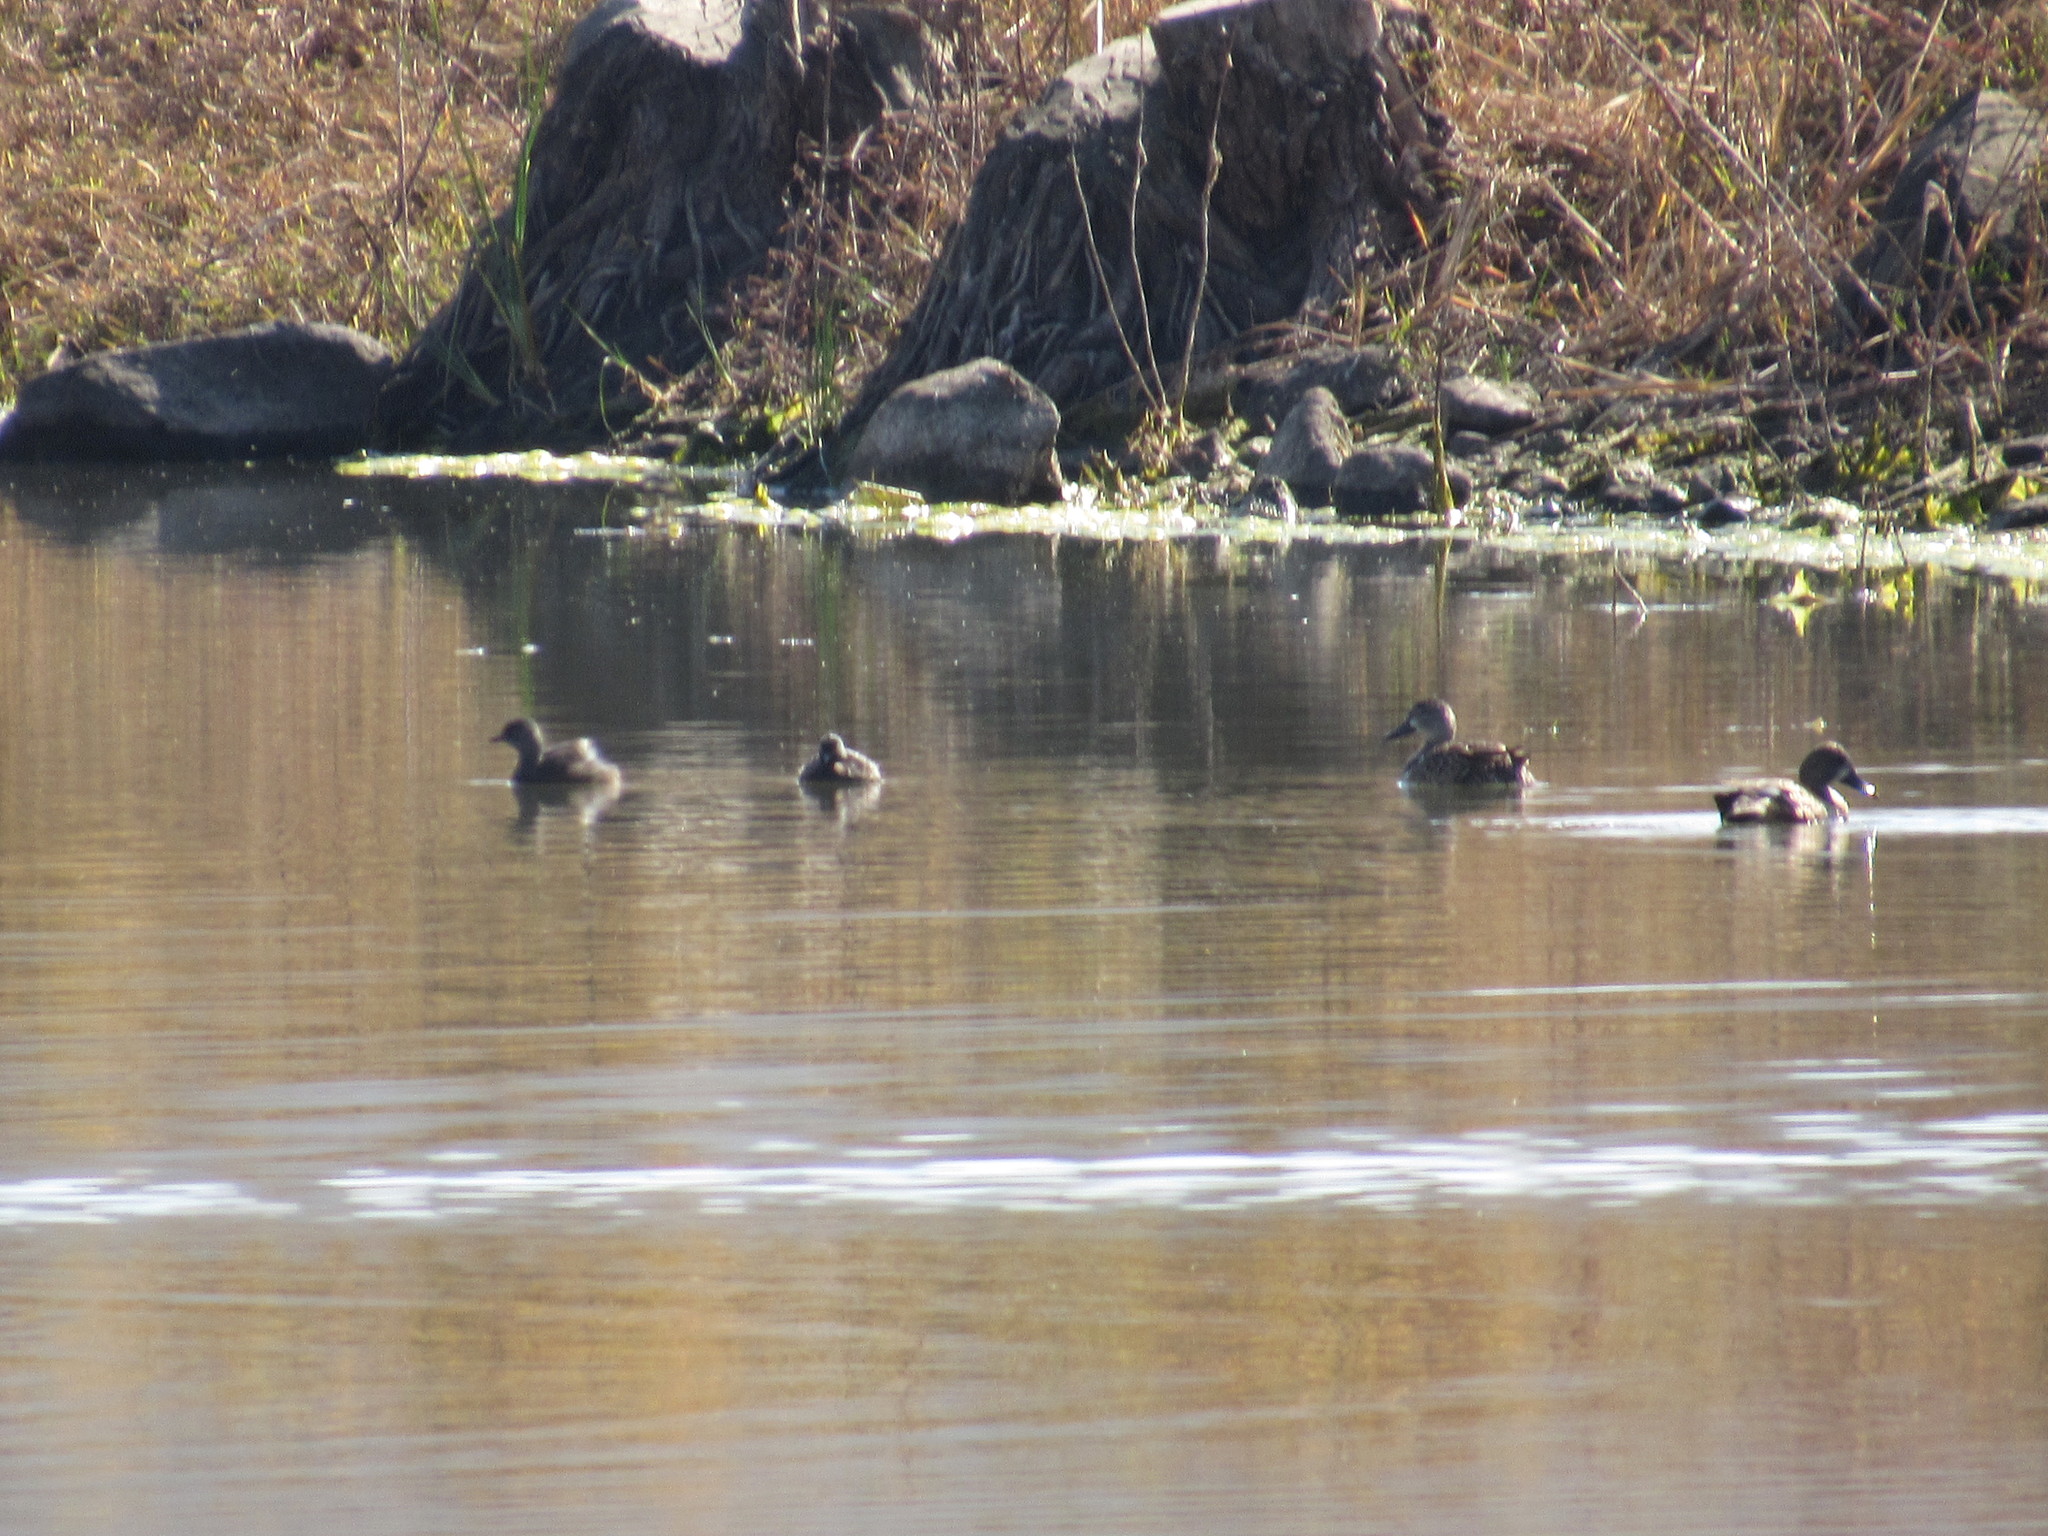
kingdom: Animalia
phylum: Chordata
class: Aves
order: Podicipediformes
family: Podicipedidae
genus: Tachybaptus
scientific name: Tachybaptus dominicus
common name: Least grebe
